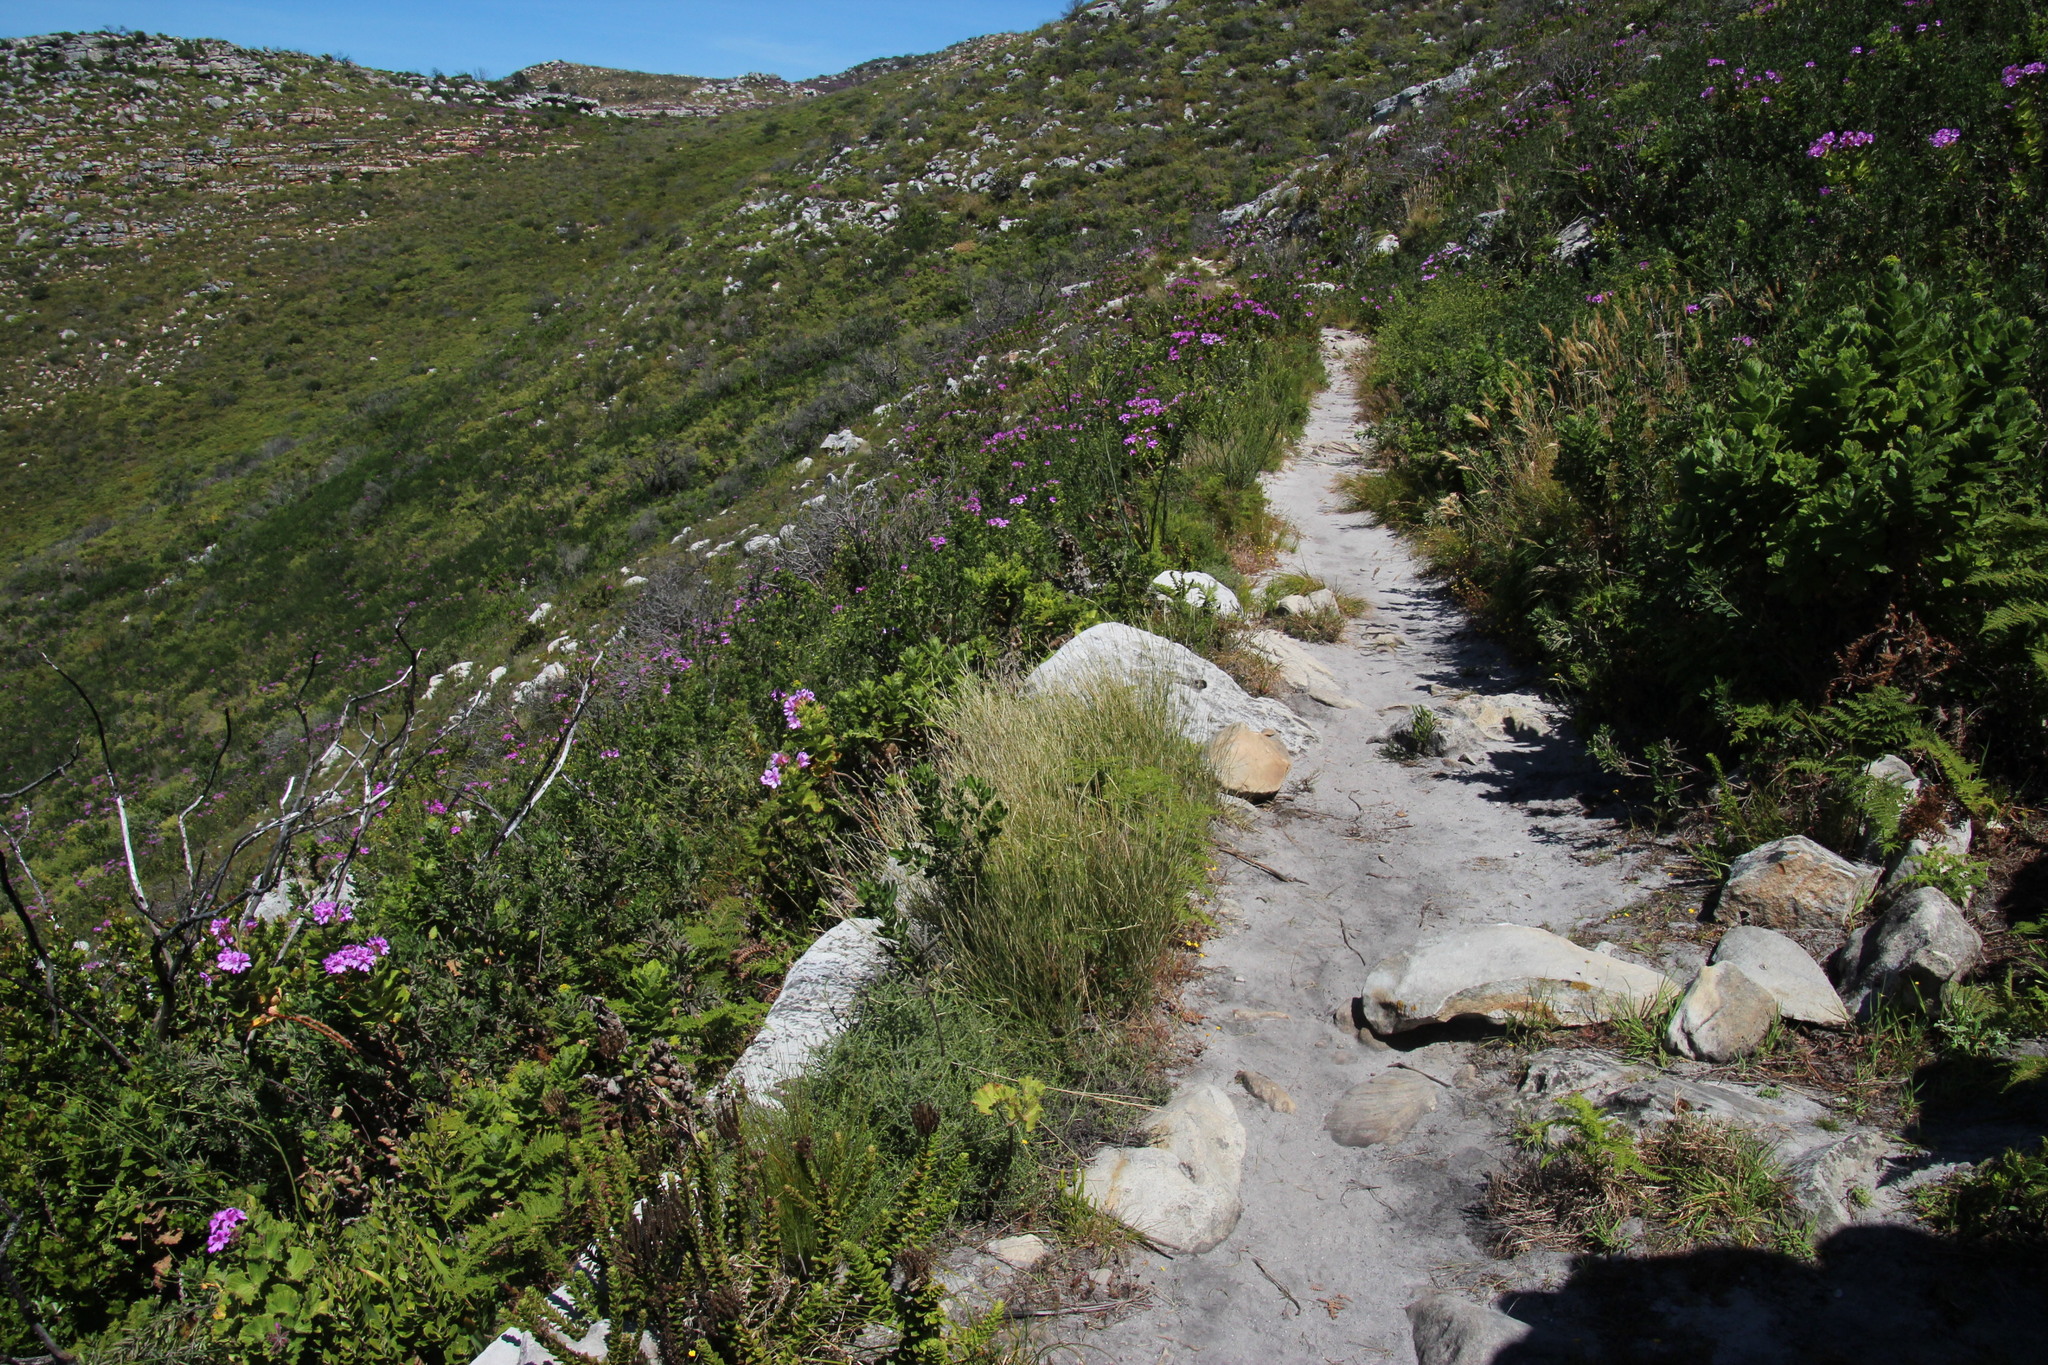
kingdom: Plantae
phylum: Tracheophyta
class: Liliopsida
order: Poales
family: Poaceae
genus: Ehrharta
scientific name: Ehrharta ramosa
